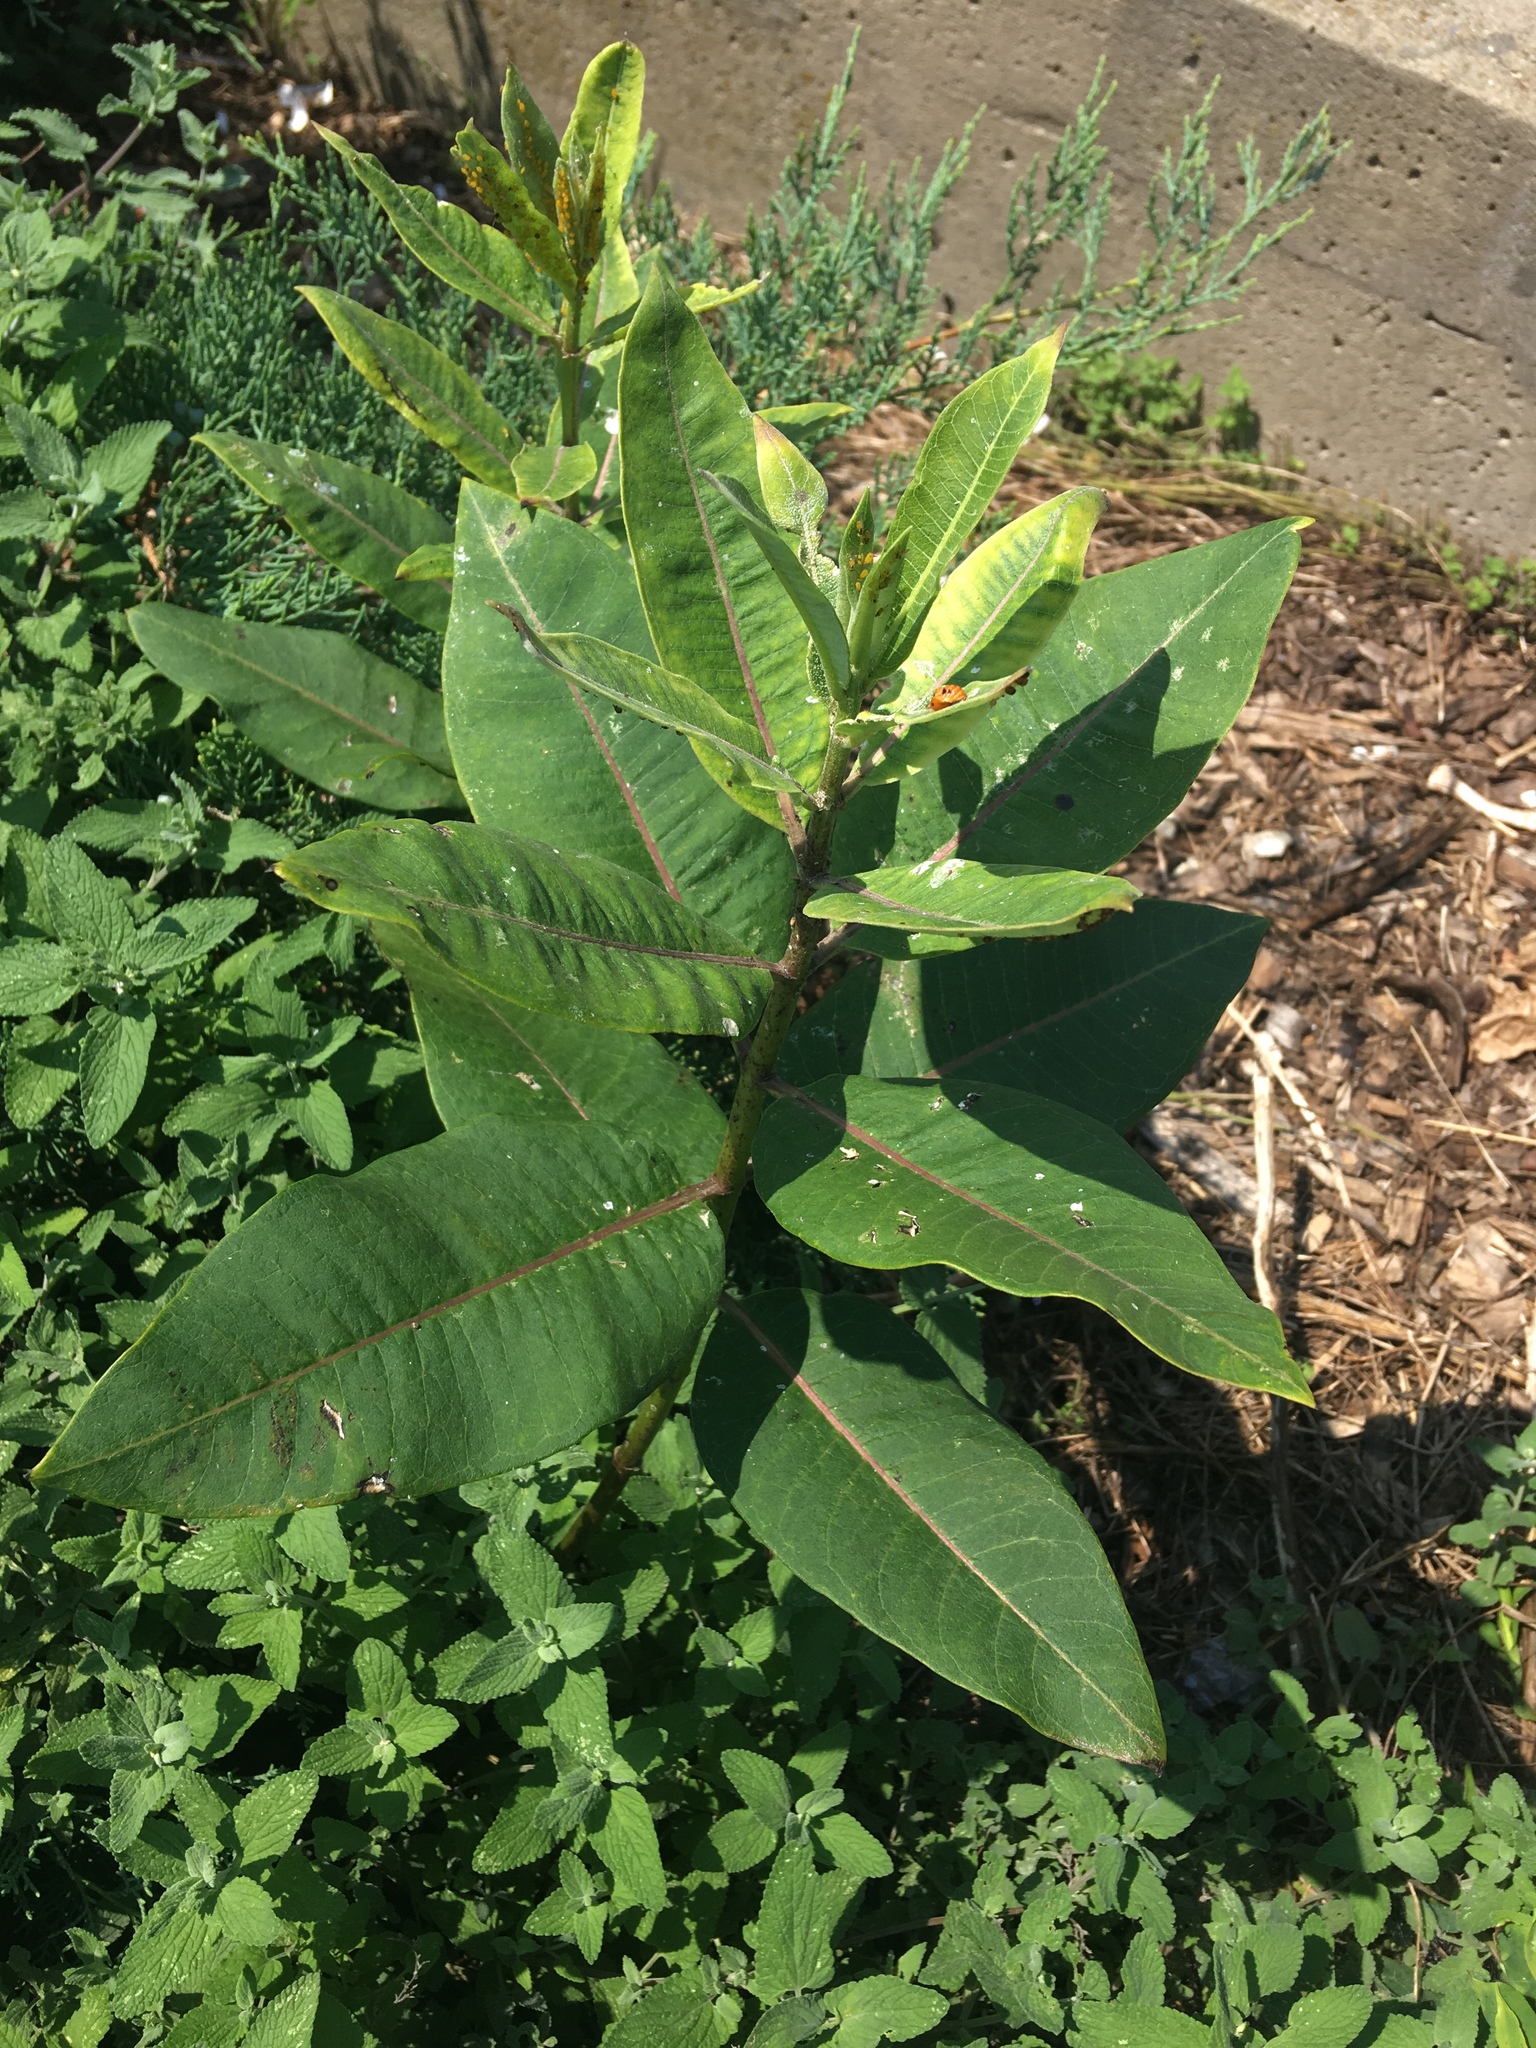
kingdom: Plantae
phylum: Tracheophyta
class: Magnoliopsida
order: Gentianales
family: Apocynaceae
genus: Asclepias
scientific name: Asclepias syriaca
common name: Common milkweed
